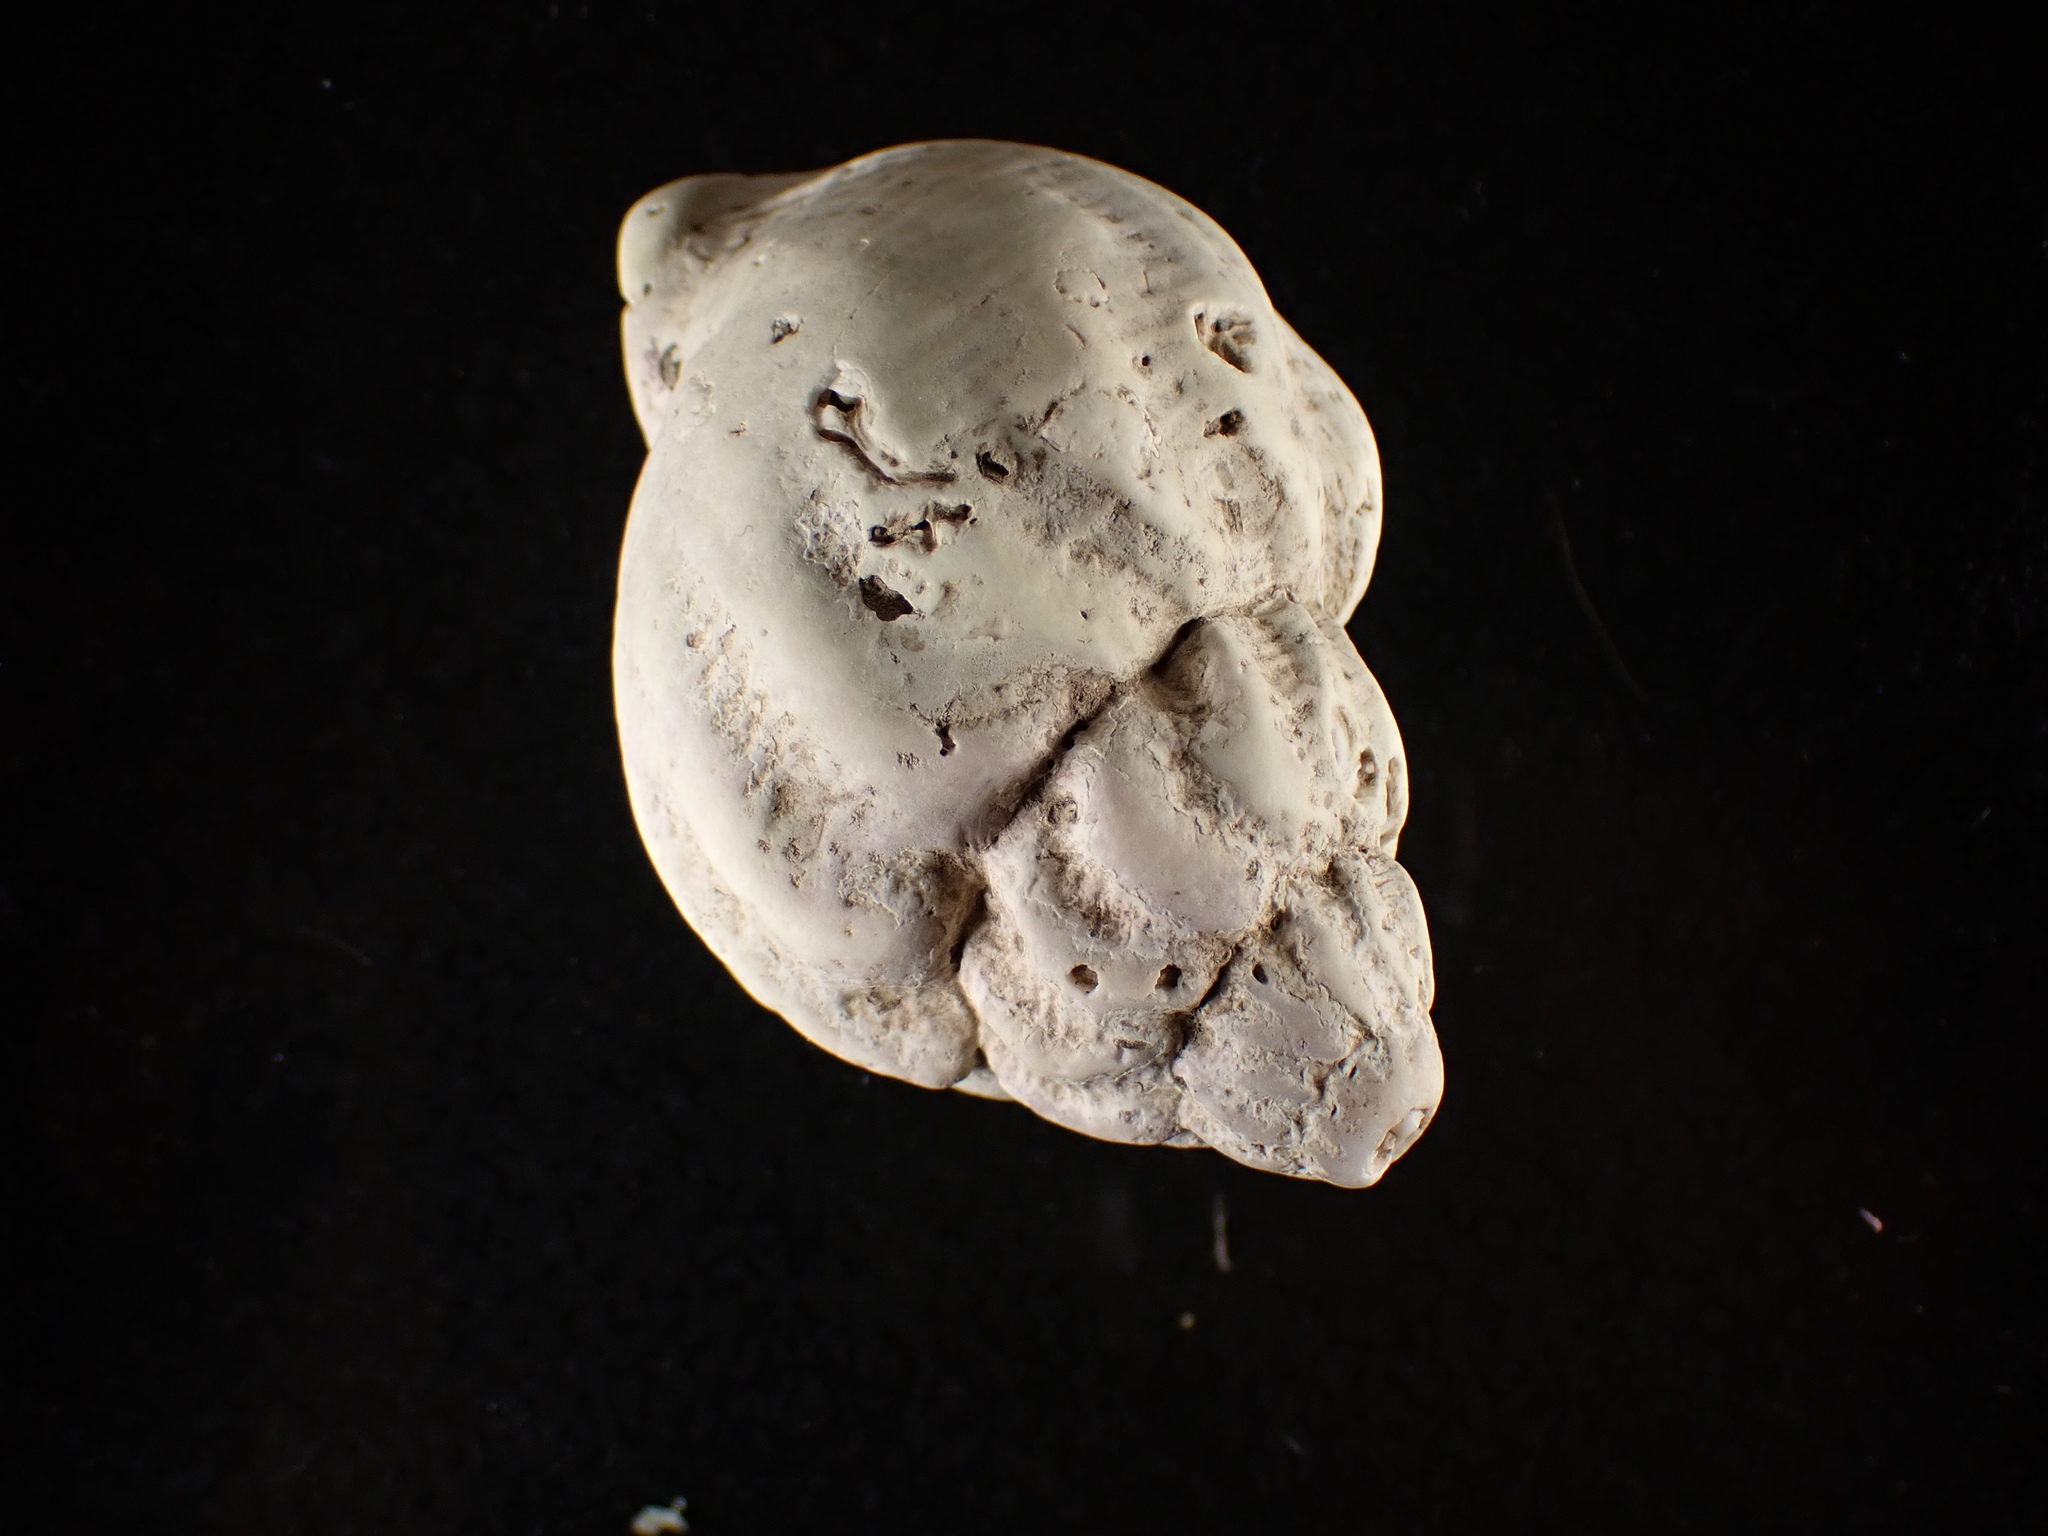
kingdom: Animalia
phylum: Mollusca
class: Gastropoda
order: Neogastropoda
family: Buccinidae
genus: Buccinum
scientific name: Buccinum undatum
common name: Common whelk
